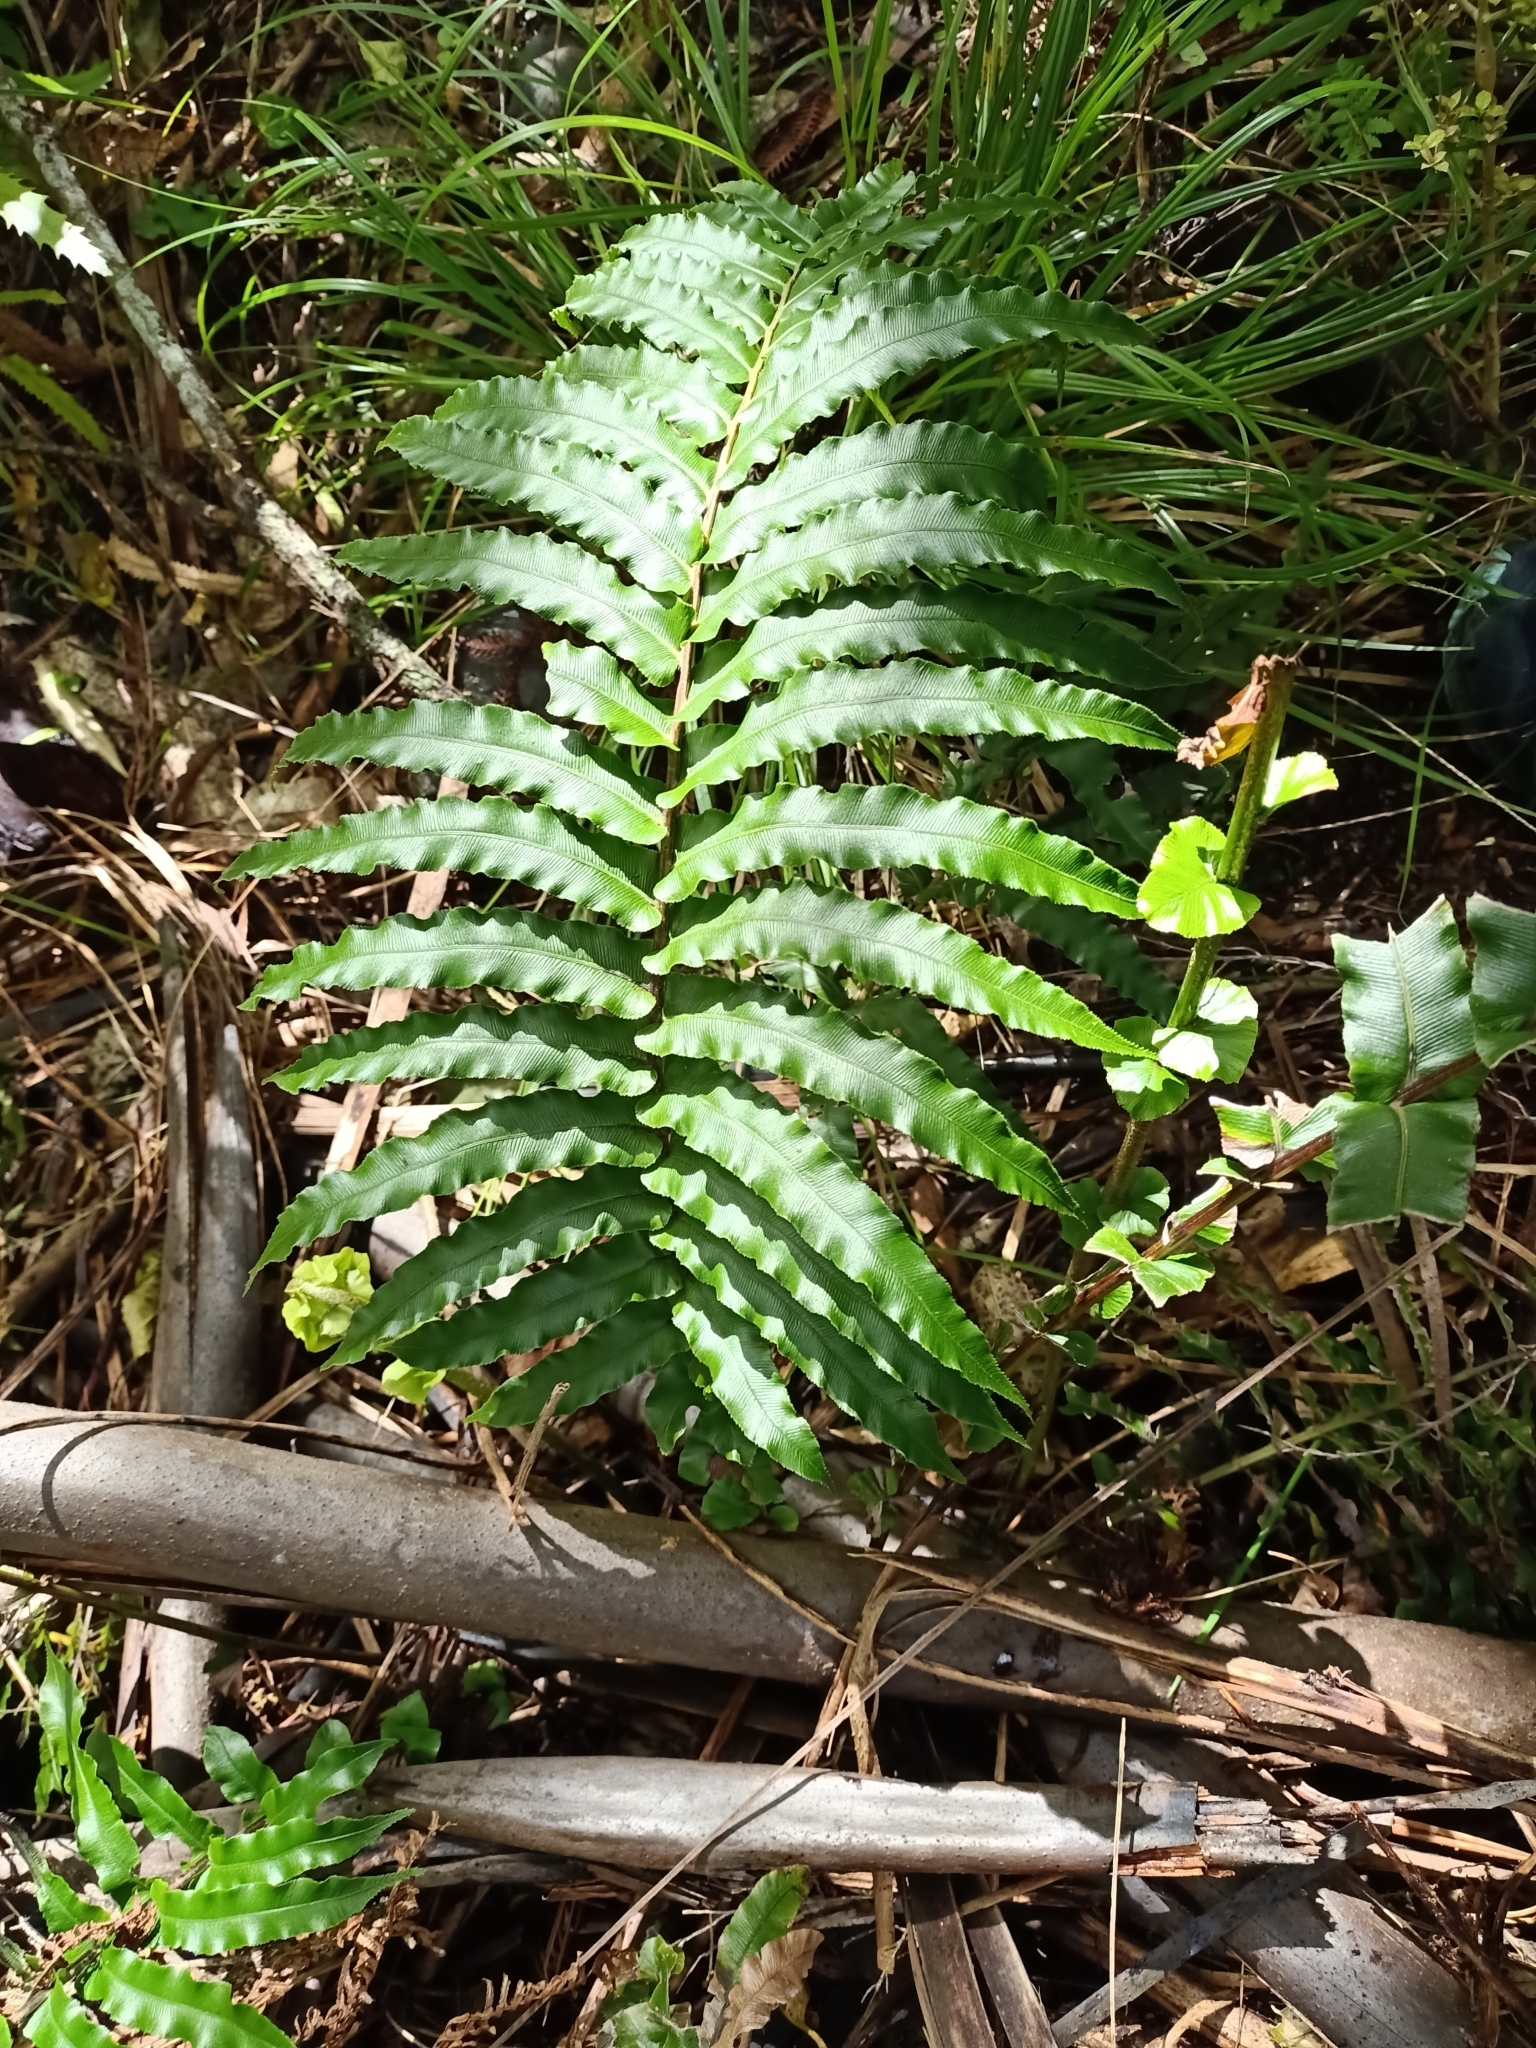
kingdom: Plantae
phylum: Tracheophyta
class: Polypodiopsida
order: Polypodiales
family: Blechnaceae
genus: Parablechnum
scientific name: Parablechnum novae-zelandiae
